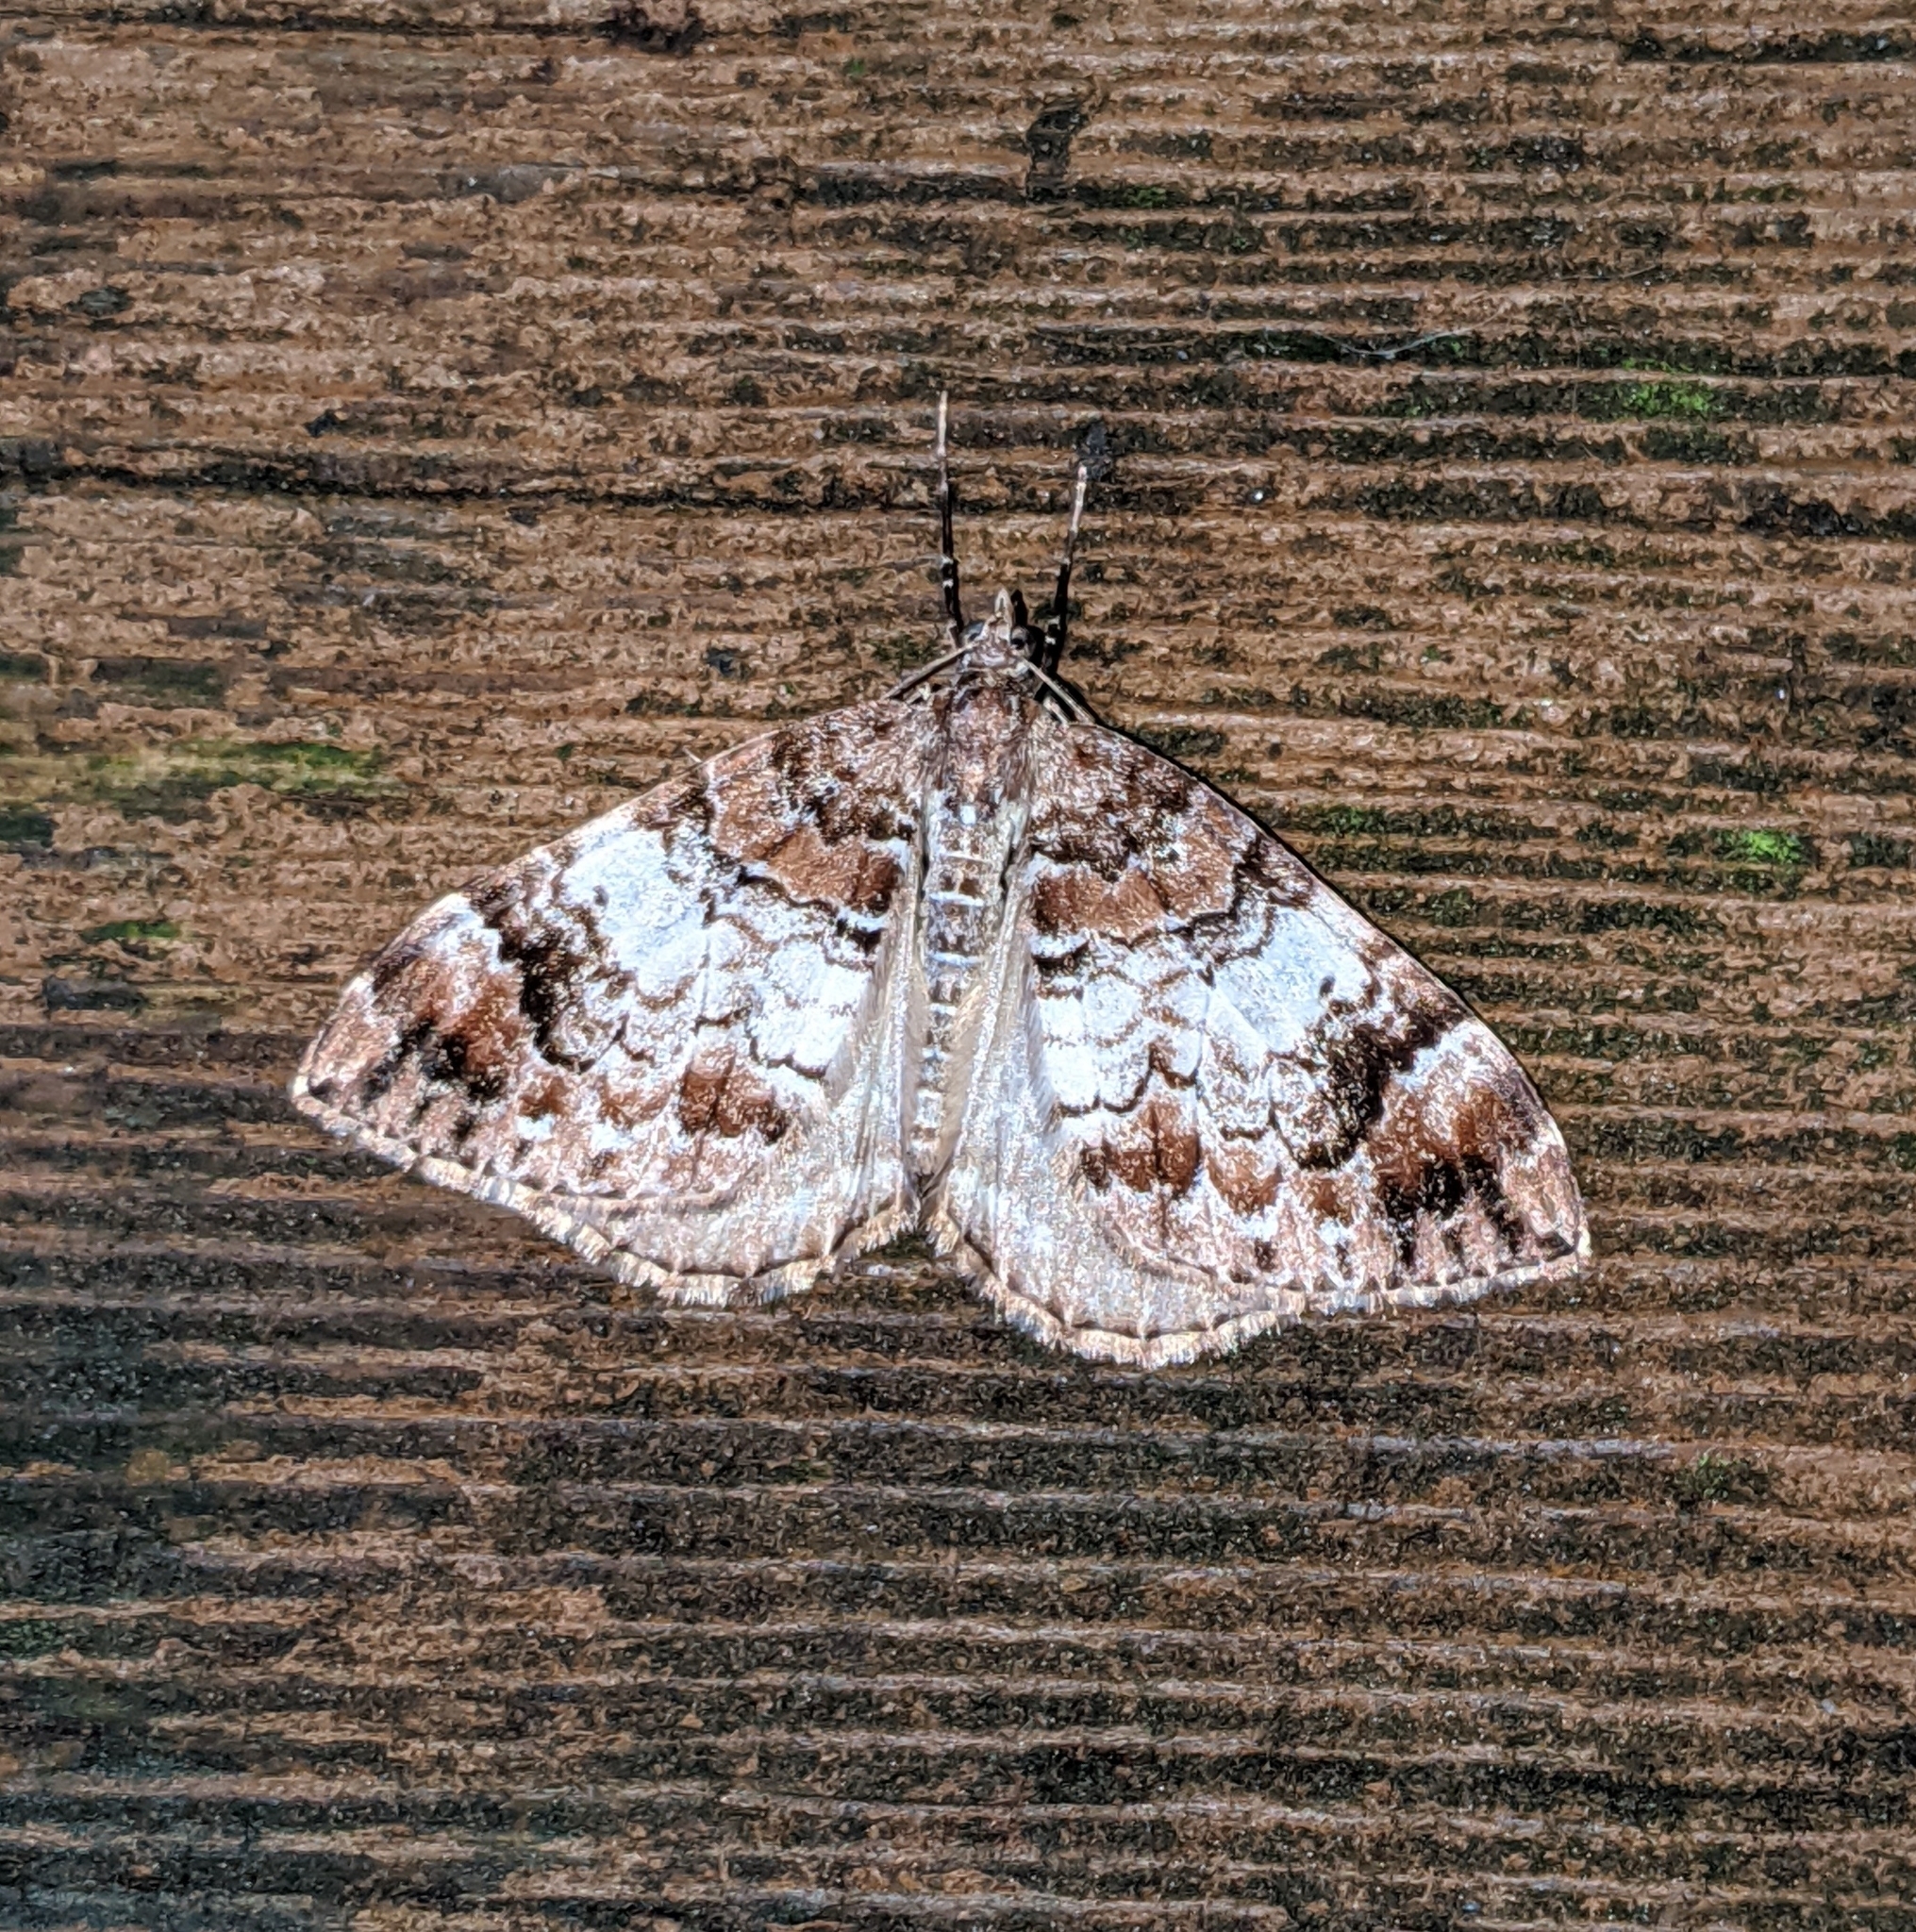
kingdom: Animalia
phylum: Arthropoda
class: Insecta
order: Lepidoptera
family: Geometridae
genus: Dysstroma
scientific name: Dysstroma sobria
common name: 10-spotted rhododendron moth
